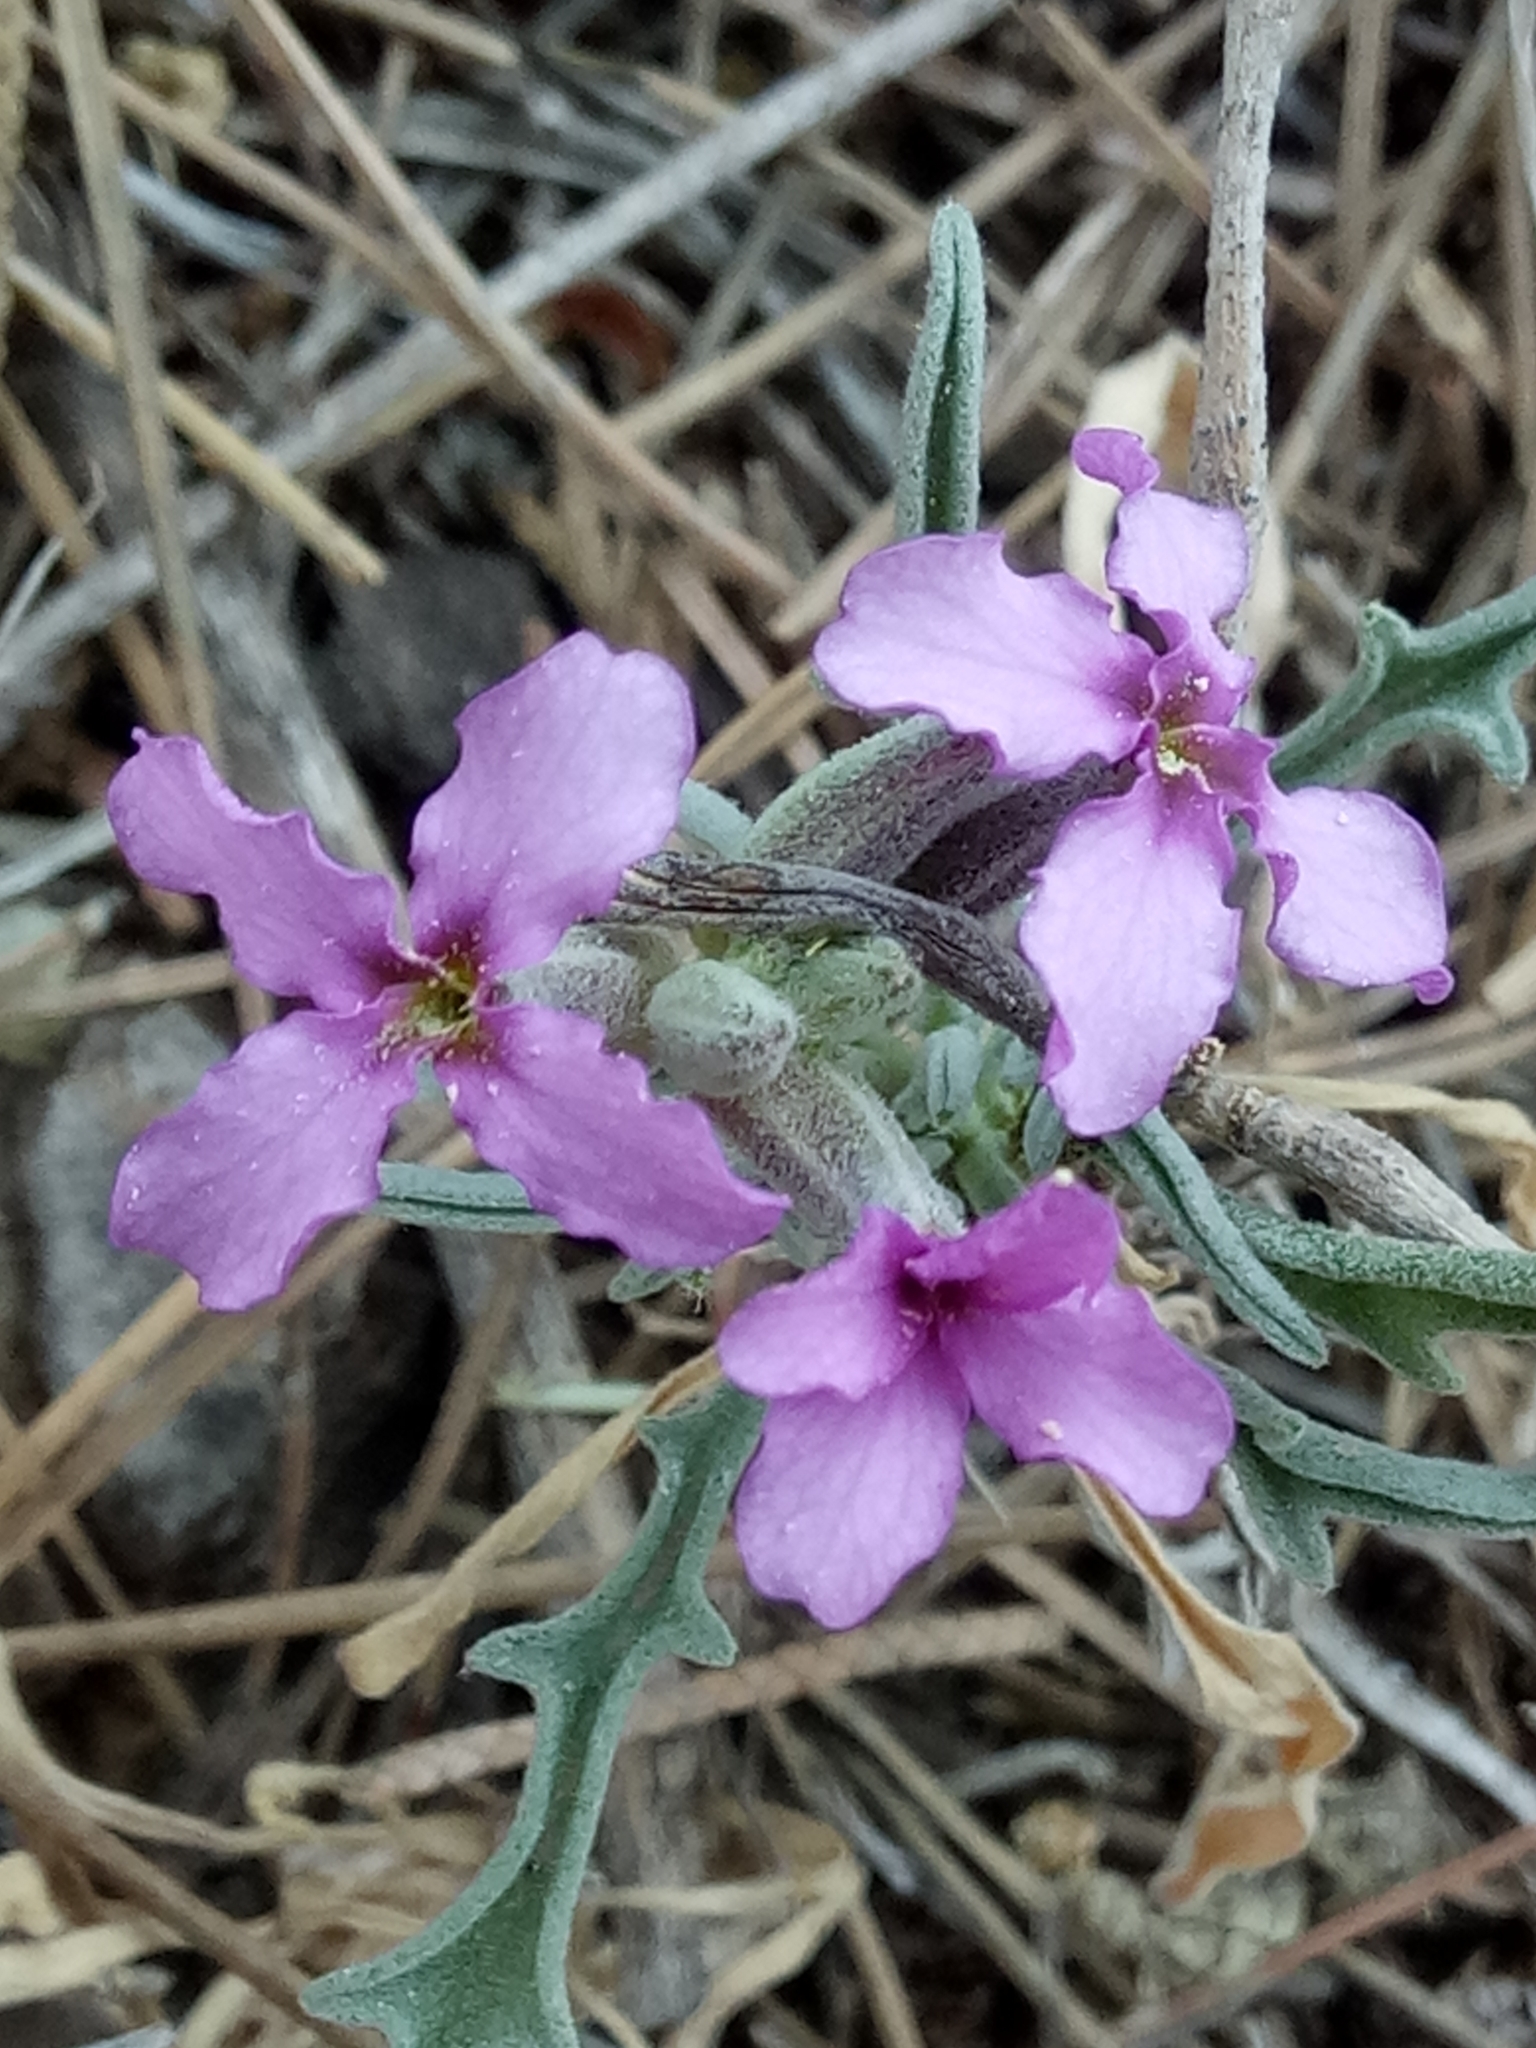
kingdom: Plantae
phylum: Tracheophyta
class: Magnoliopsida
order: Brassicales
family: Brassicaceae
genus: Matthiola
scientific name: Matthiola fruticulosa
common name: Sad stock
